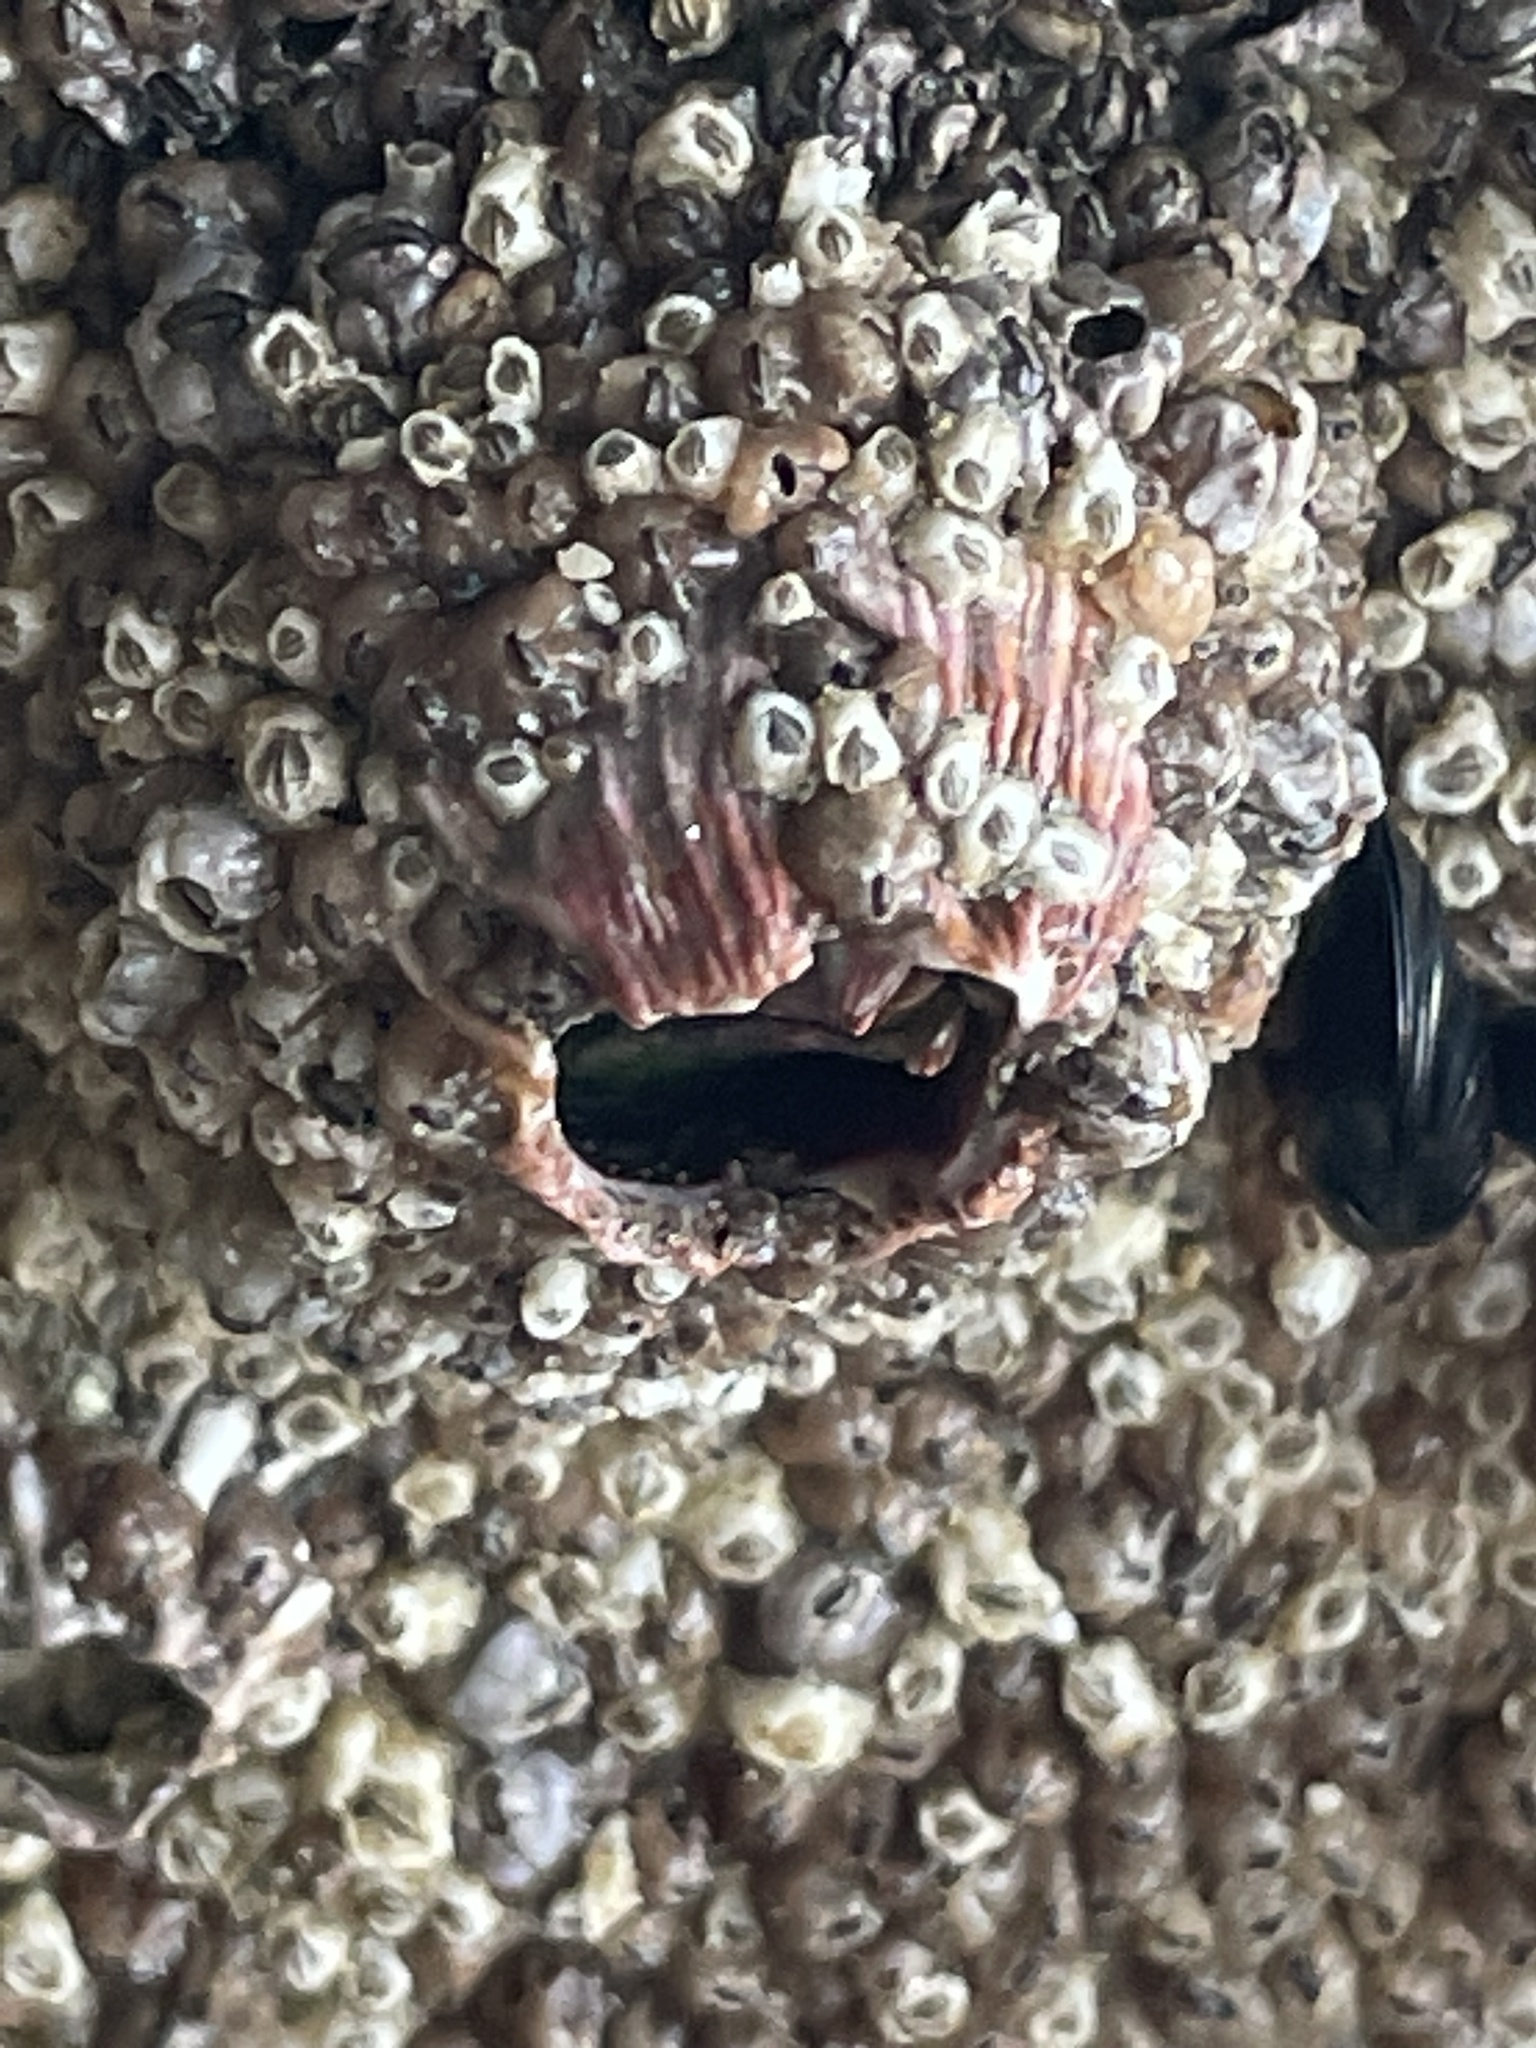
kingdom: Animalia
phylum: Arthropoda
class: Maxillopoda
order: Sessilia
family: Tetraclitidae
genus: Tetraclita
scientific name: Tetraclita rubescens
